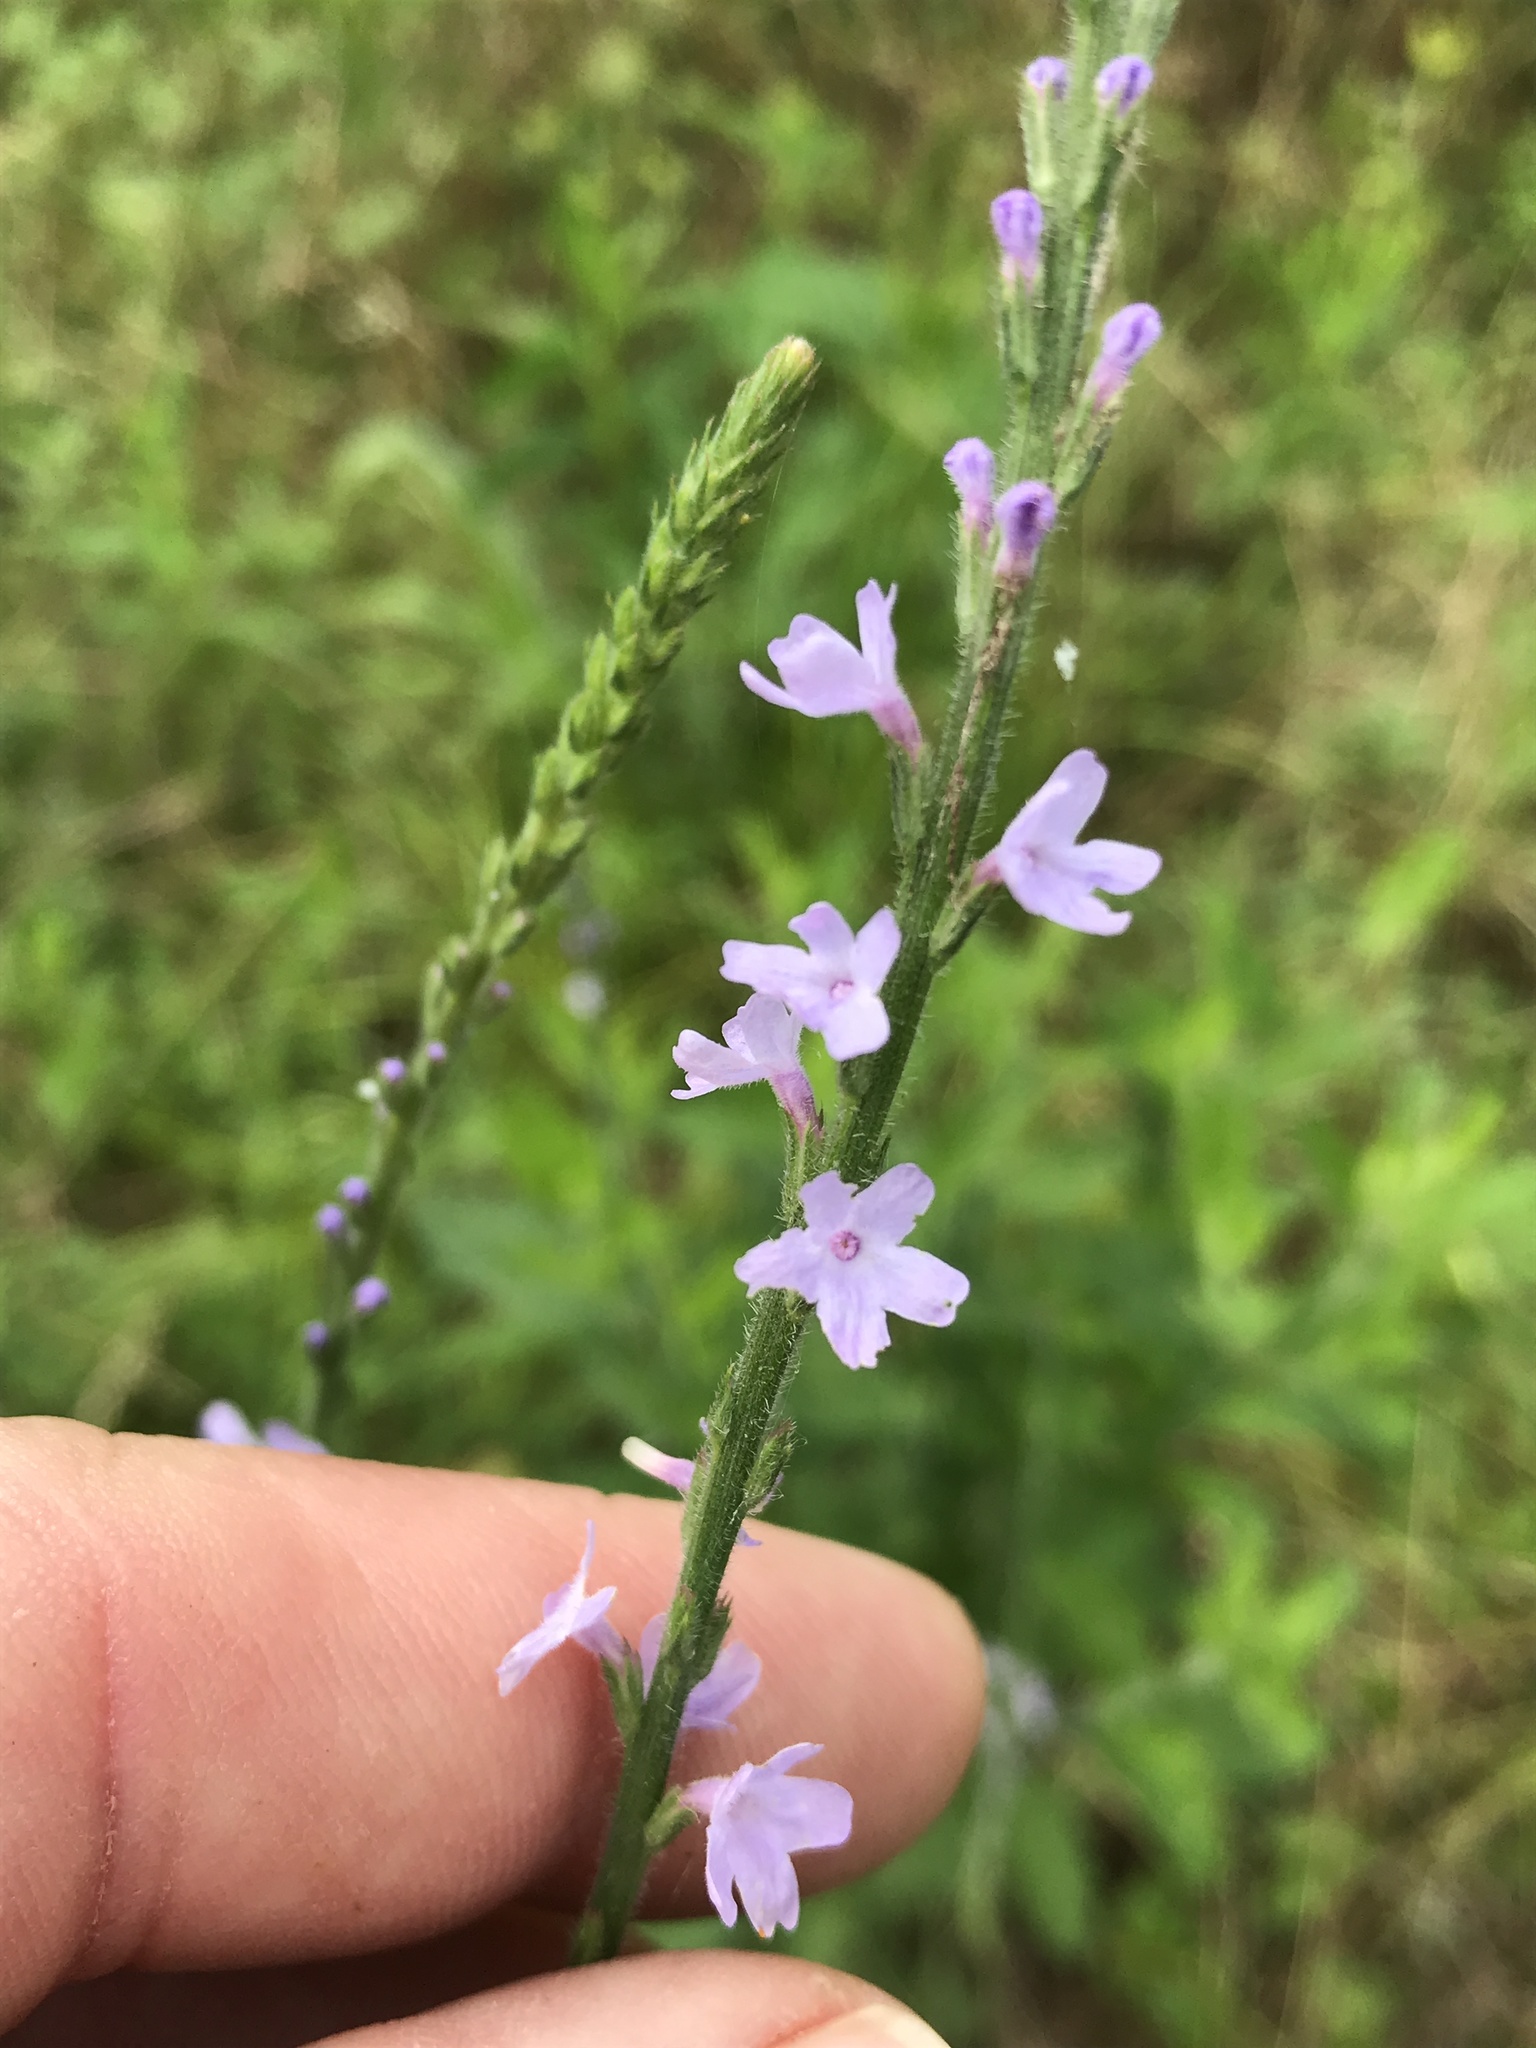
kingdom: Plantae
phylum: Tracheophyta
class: Magnoliopsida
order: Lamiales
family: Verbenaceae
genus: Verbena
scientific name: Verbena xutha
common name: Gulf vervain
